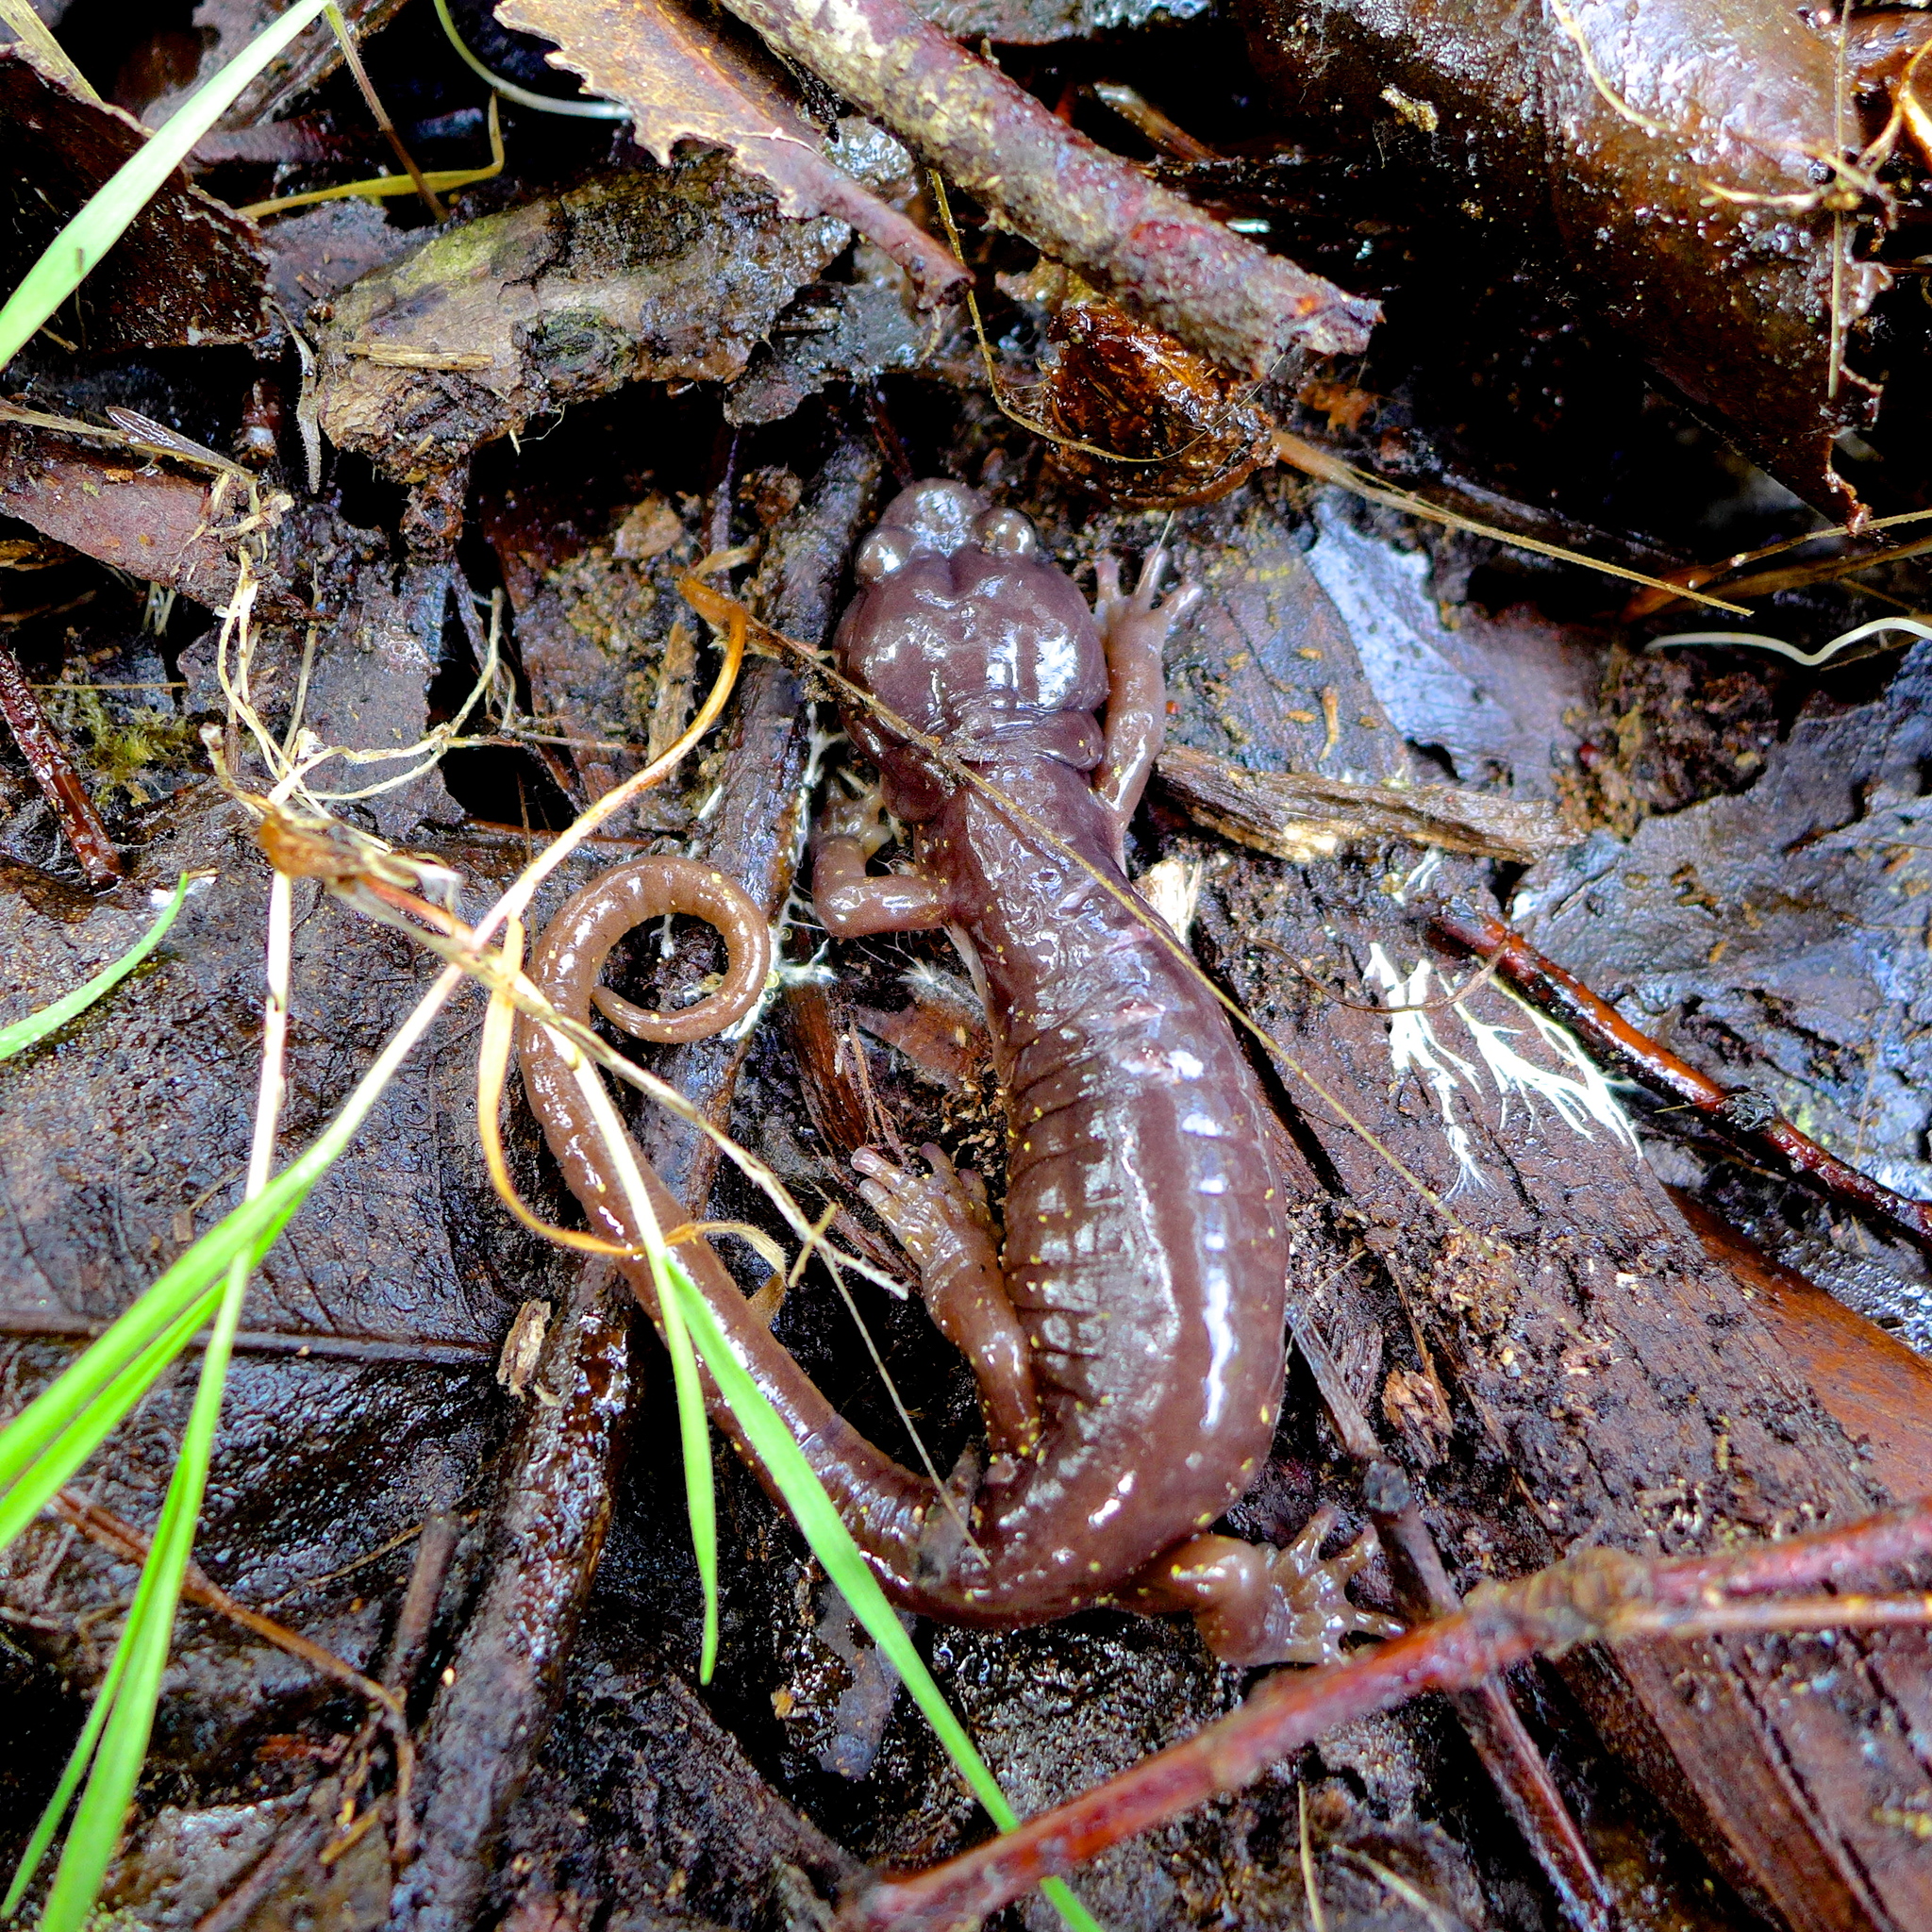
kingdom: Animalia
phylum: Chordata
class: Amphibia
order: Caudata
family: Plethodontidae
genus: Aneides
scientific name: Aneides lugubris
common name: Arboreal salamander
